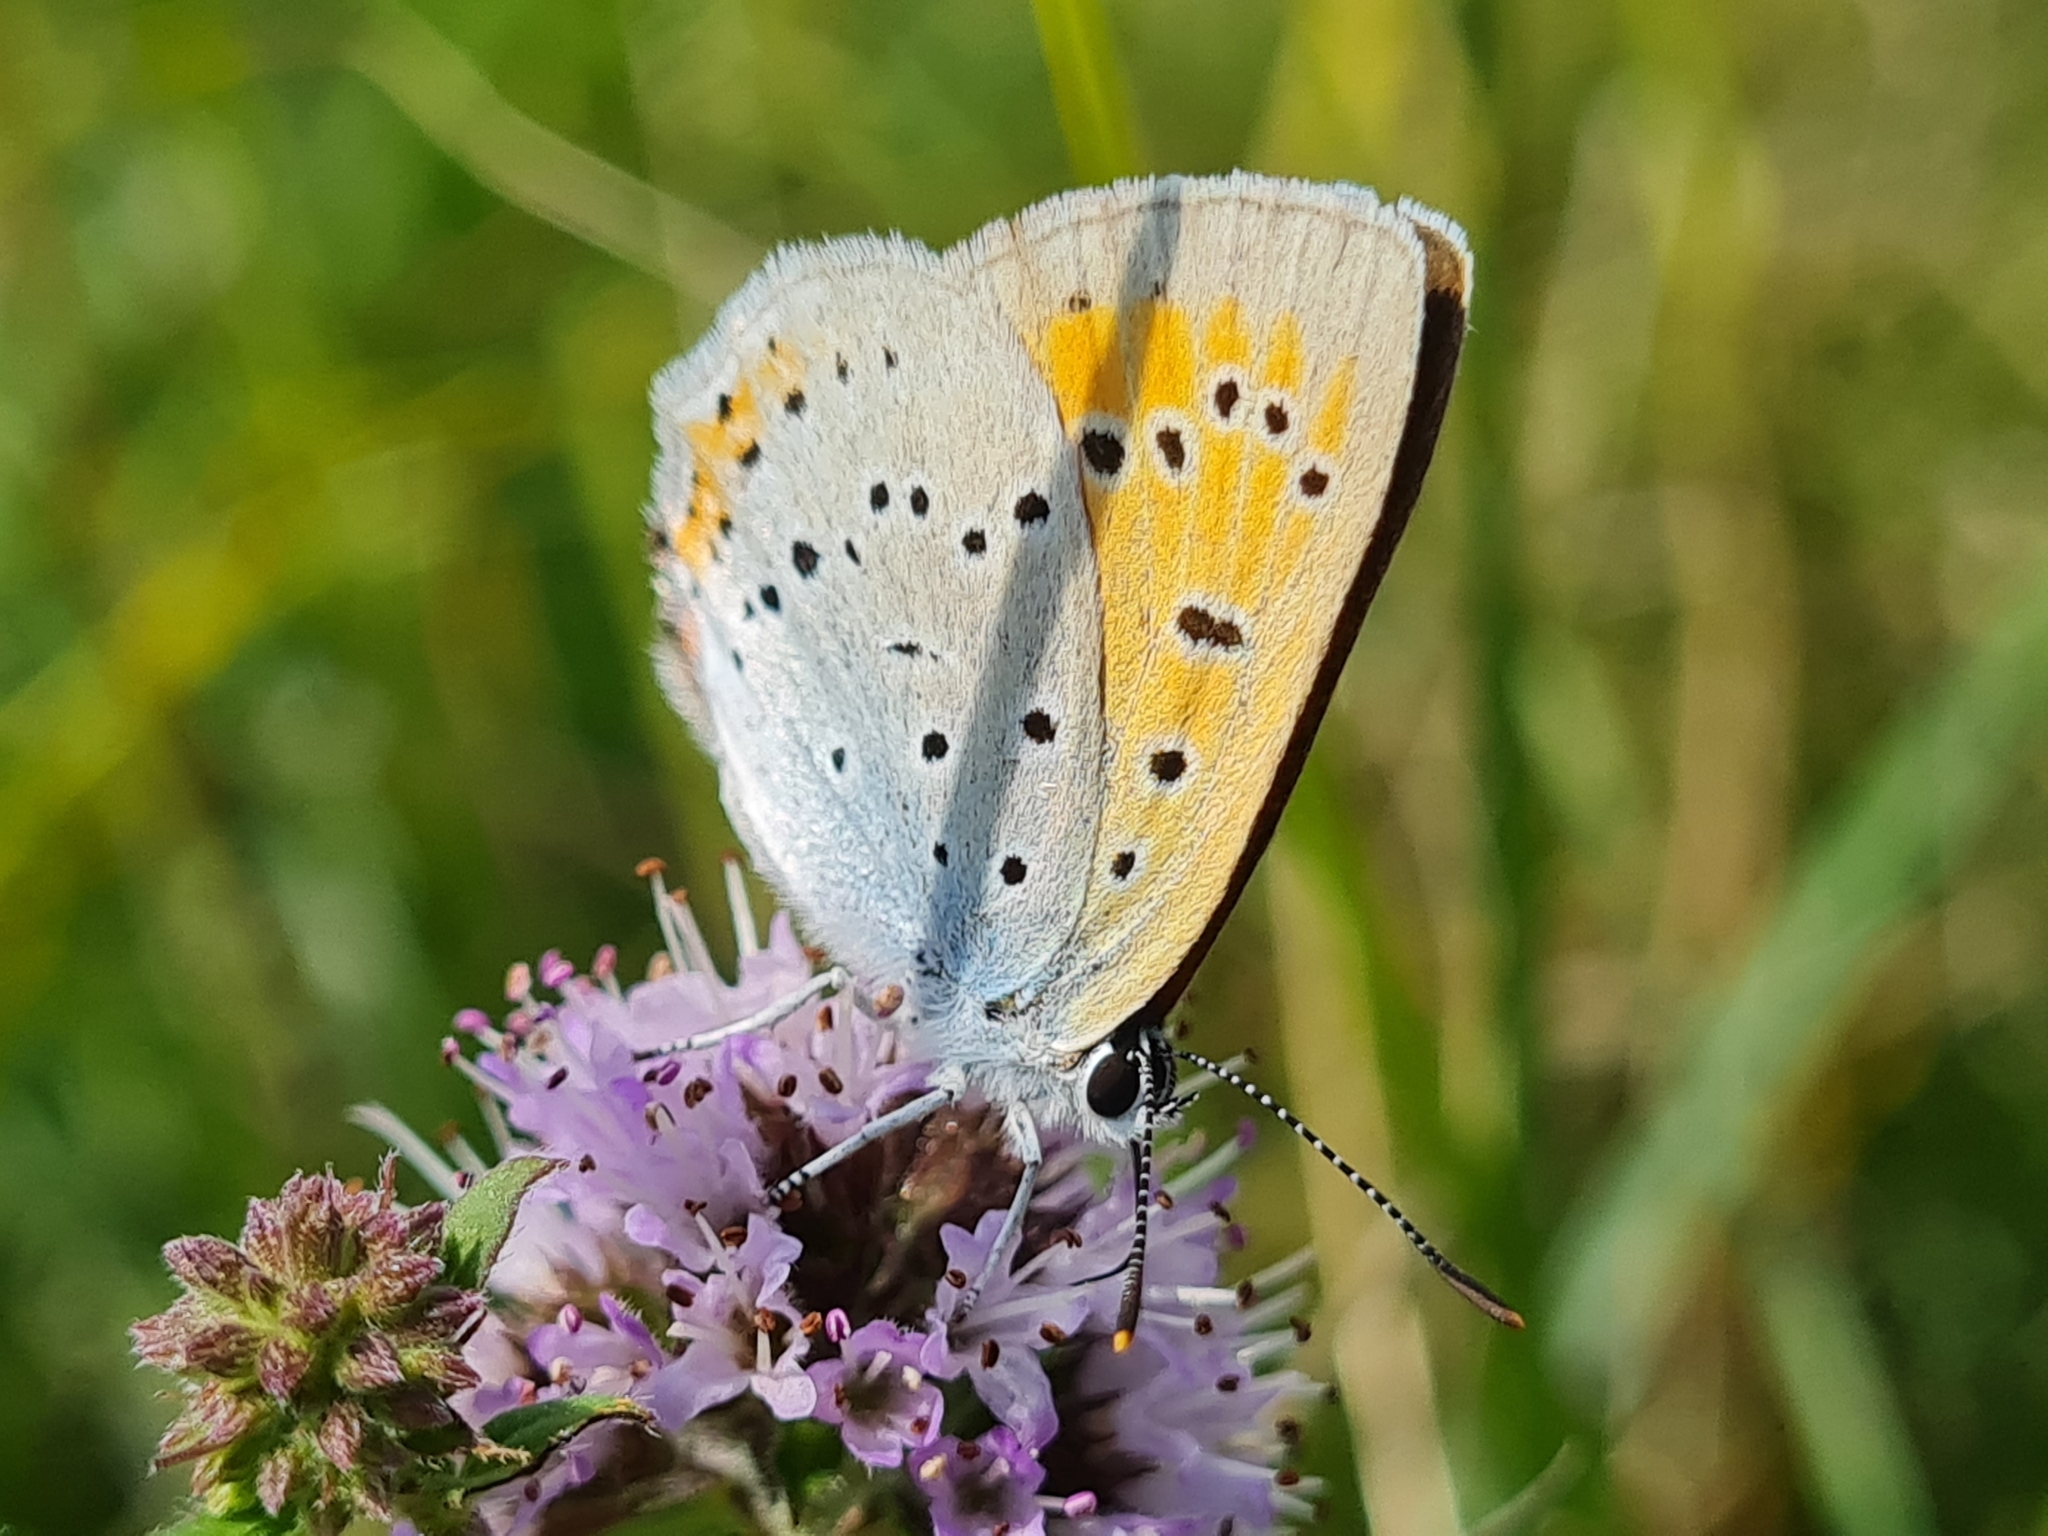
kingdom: Animalia
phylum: Arthropoda
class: Insecta
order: Lepidoptera
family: Lycaenidae
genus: Lycaena
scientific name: Lycaena dispar
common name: Large copper
